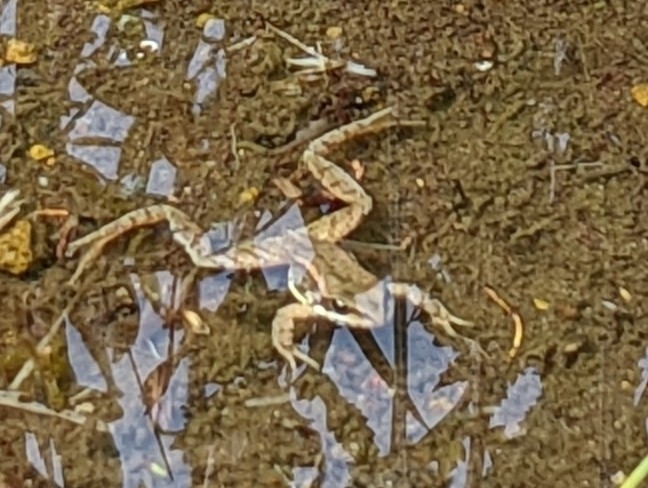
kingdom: Animalia
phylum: Chordata
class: Amphibia
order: Anura
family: Ranidae
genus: Rana
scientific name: Rana cascadae
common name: Cascades frog
